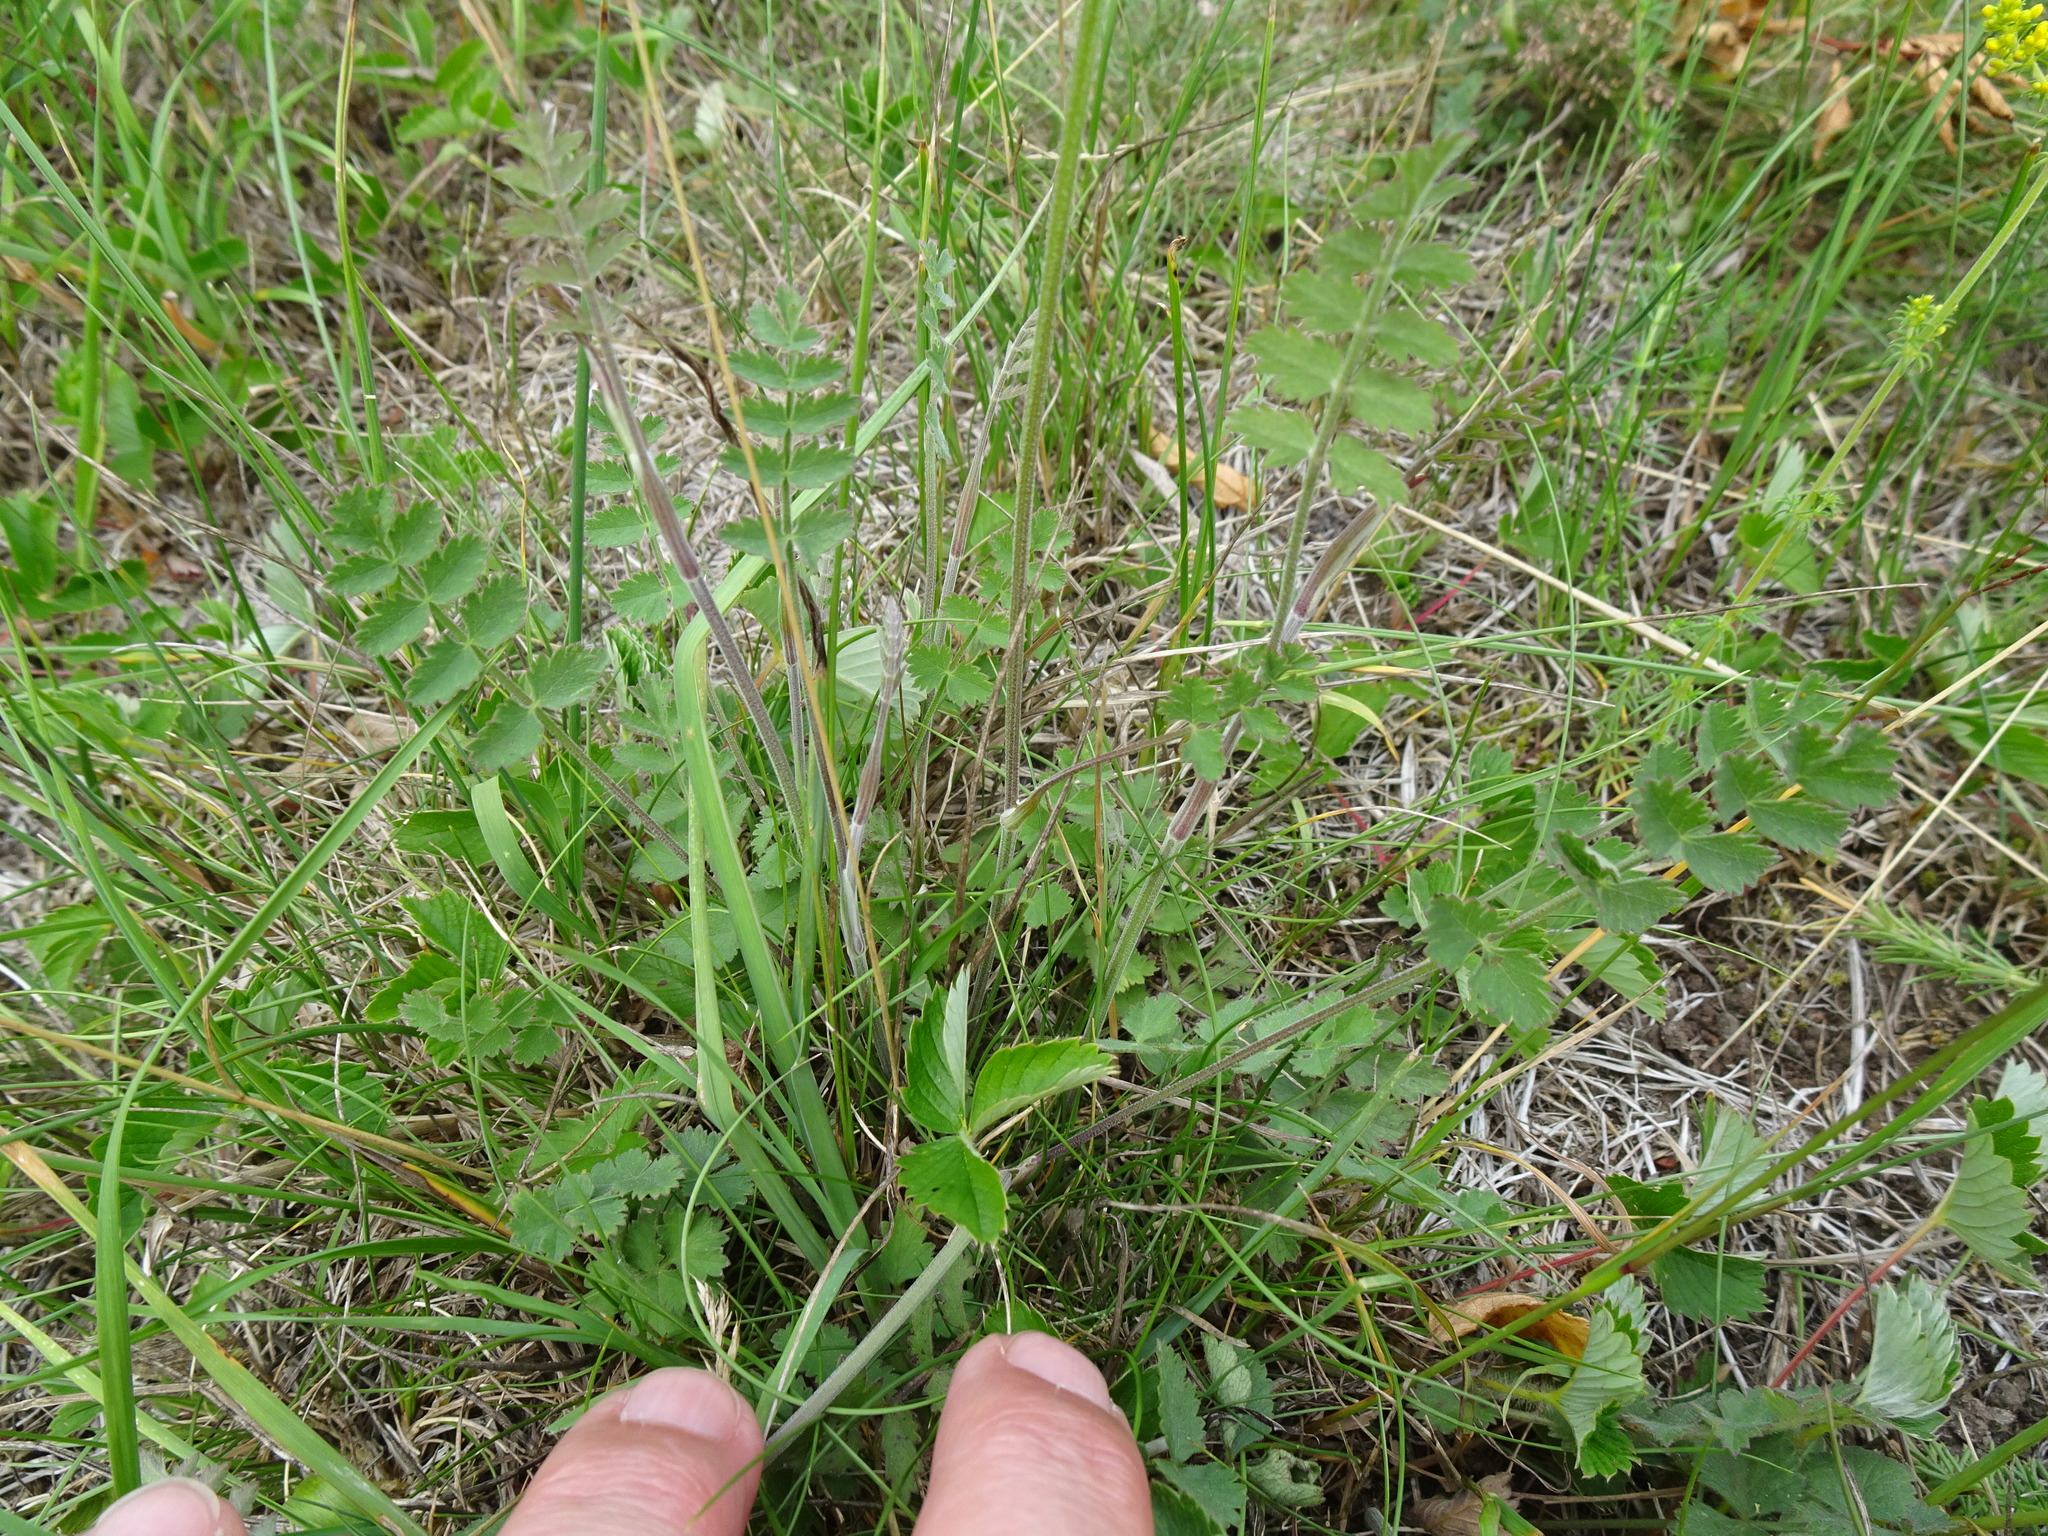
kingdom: Plantae
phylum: Tracheophyta
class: Magnoliopsida
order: Apiales
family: Apiaceae
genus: Pimpinella
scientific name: Pimpinella saxifraga
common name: Burnet-saxifrage
